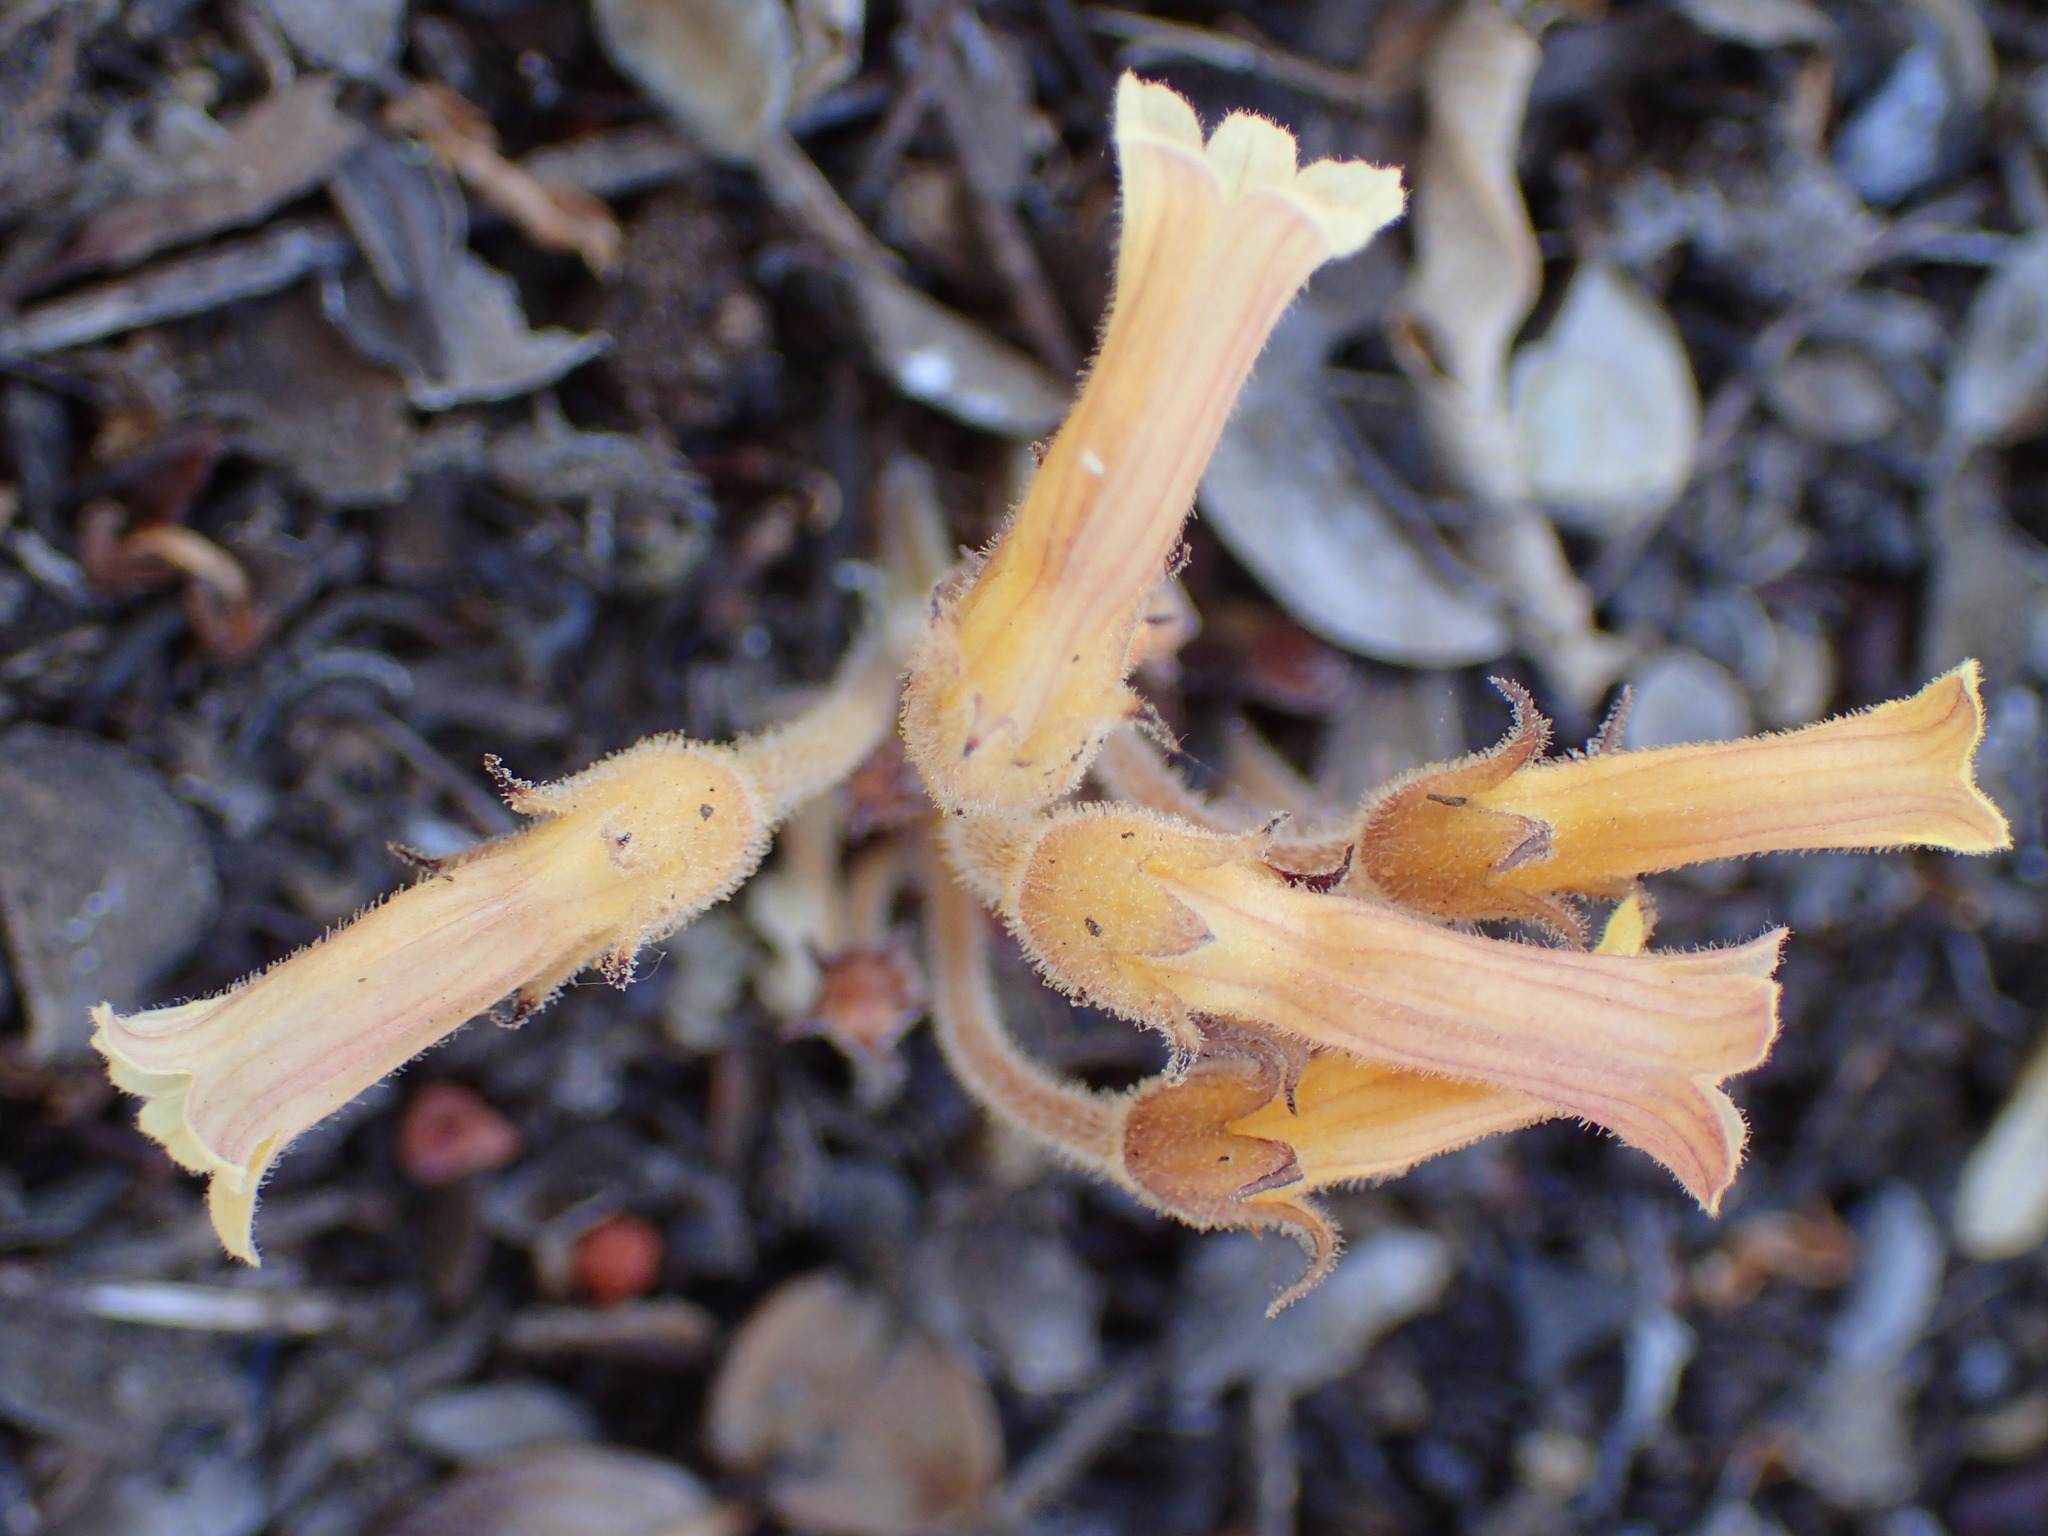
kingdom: Plantae
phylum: Tracheophyta
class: Magnoliopsida
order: Lamiales
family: Orobanchaceae
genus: Aphyllon
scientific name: Aphyllon franciscanum
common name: San francisco broomrape
